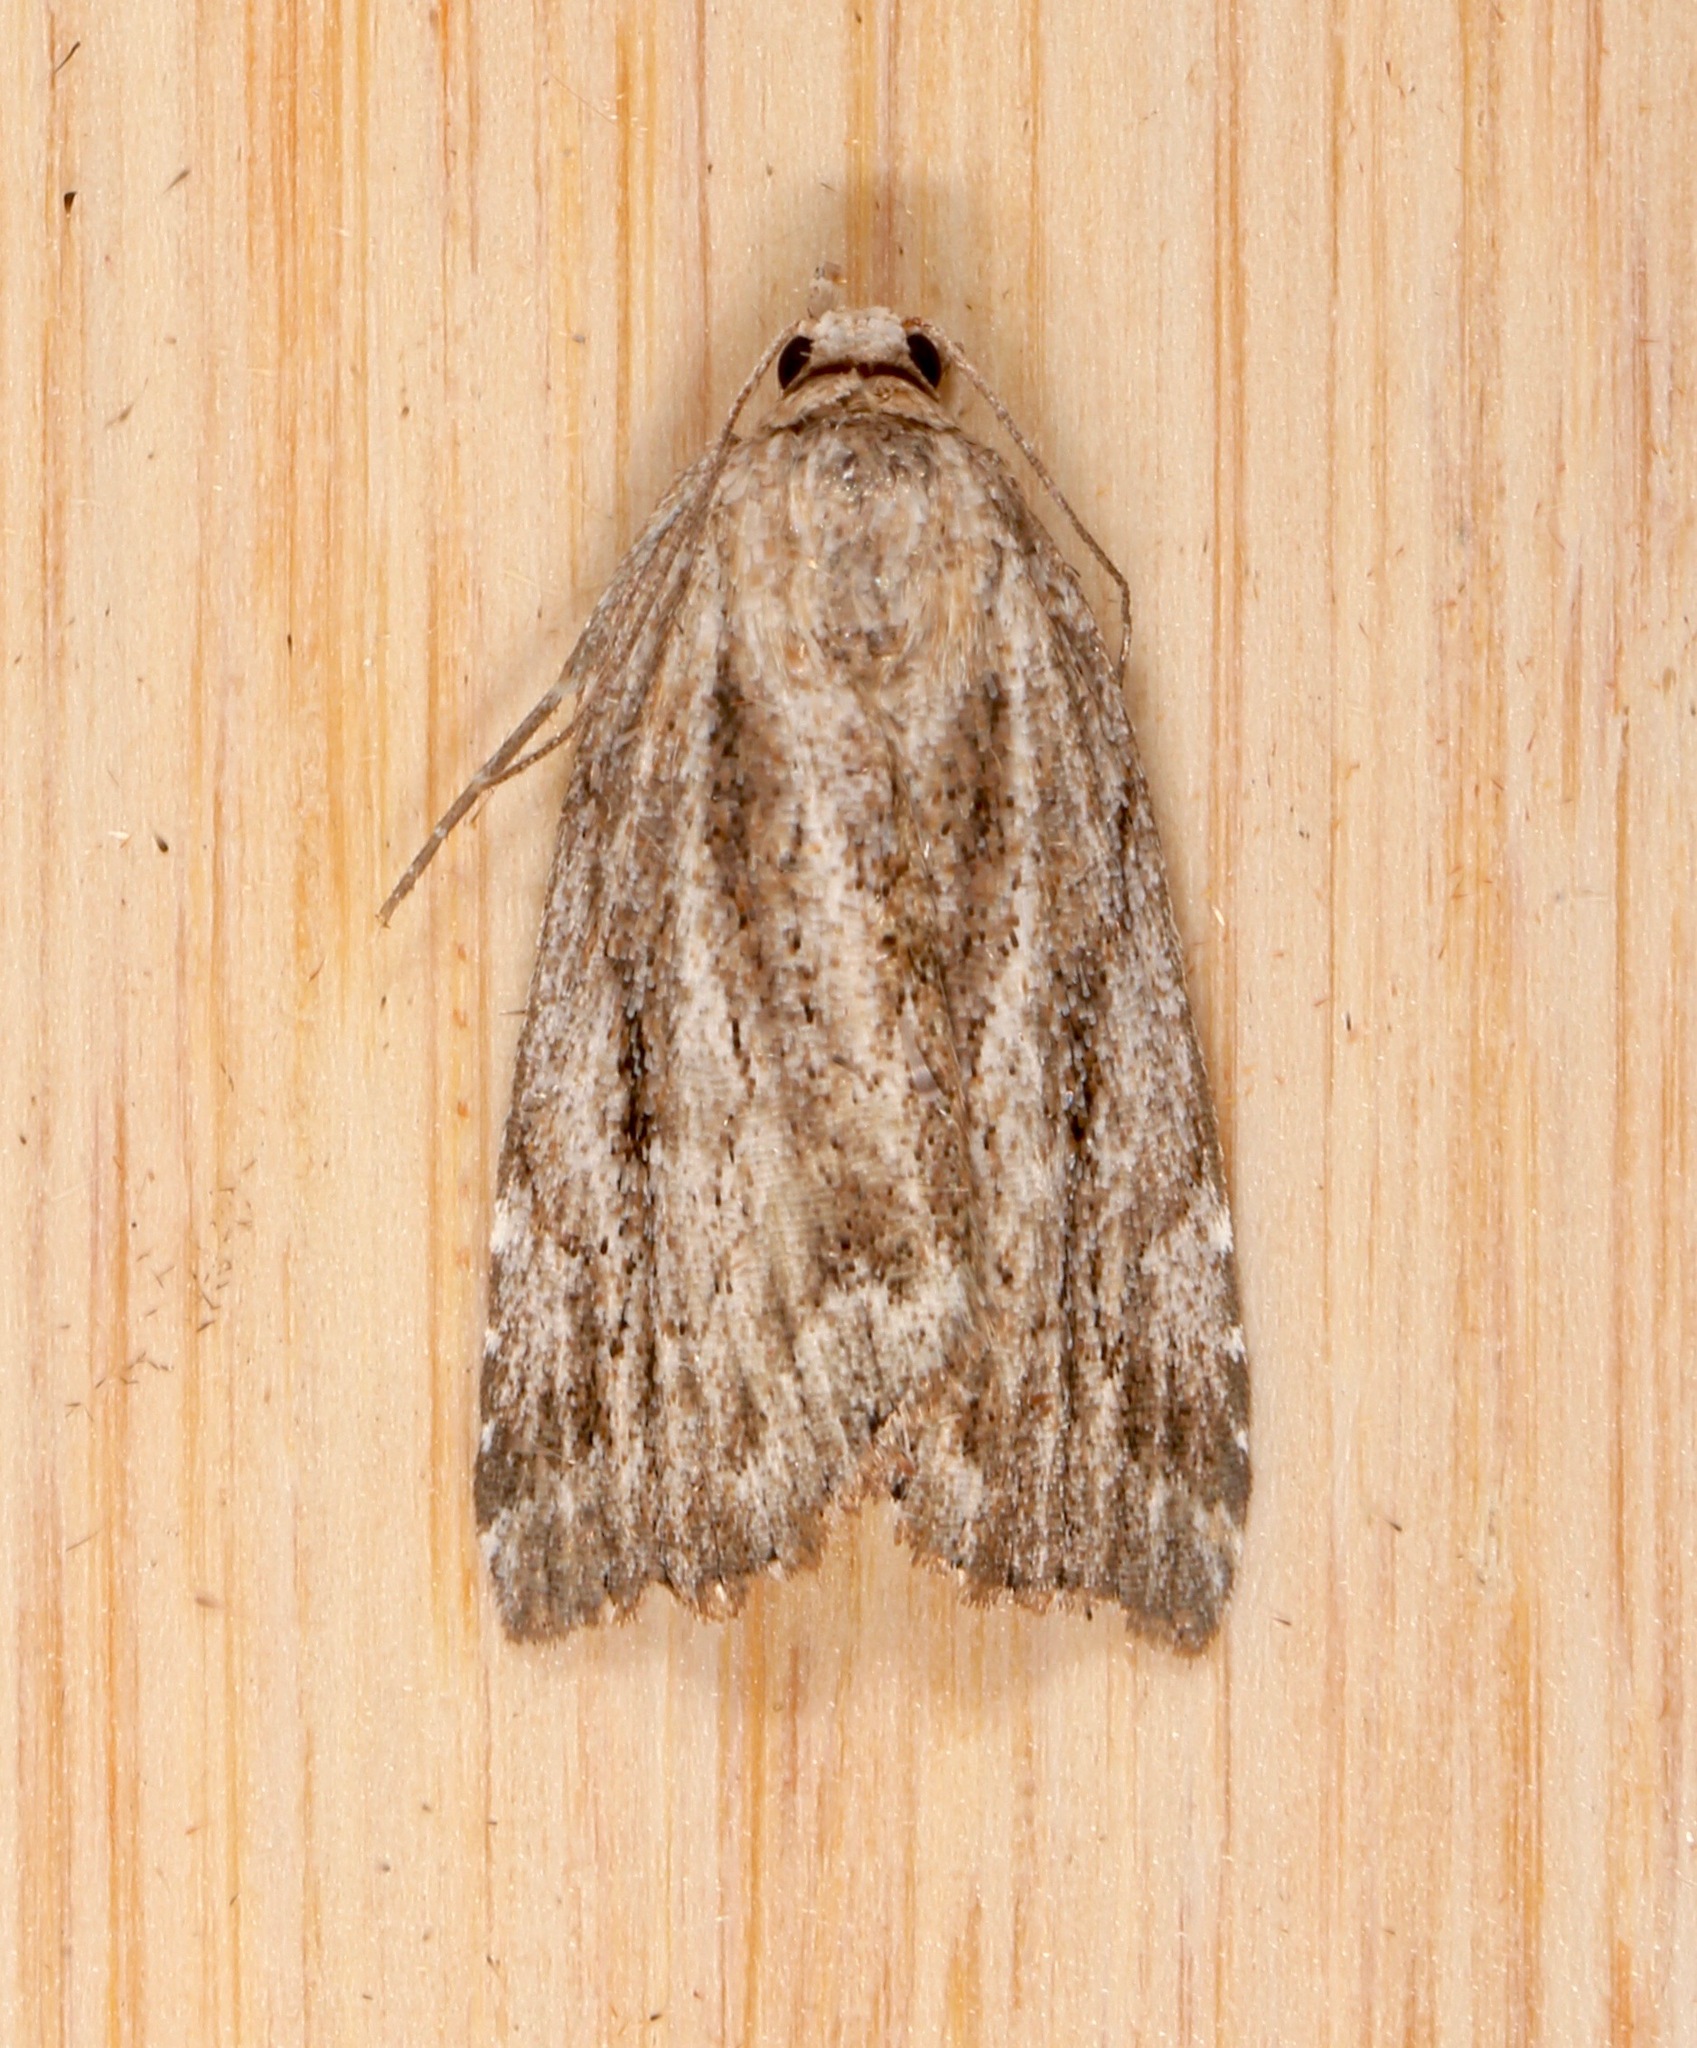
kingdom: Animalia
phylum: Arthropoda
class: Insecta
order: Lepidoptera
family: Erebidae
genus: Cutina
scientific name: Cutina albopunctella
